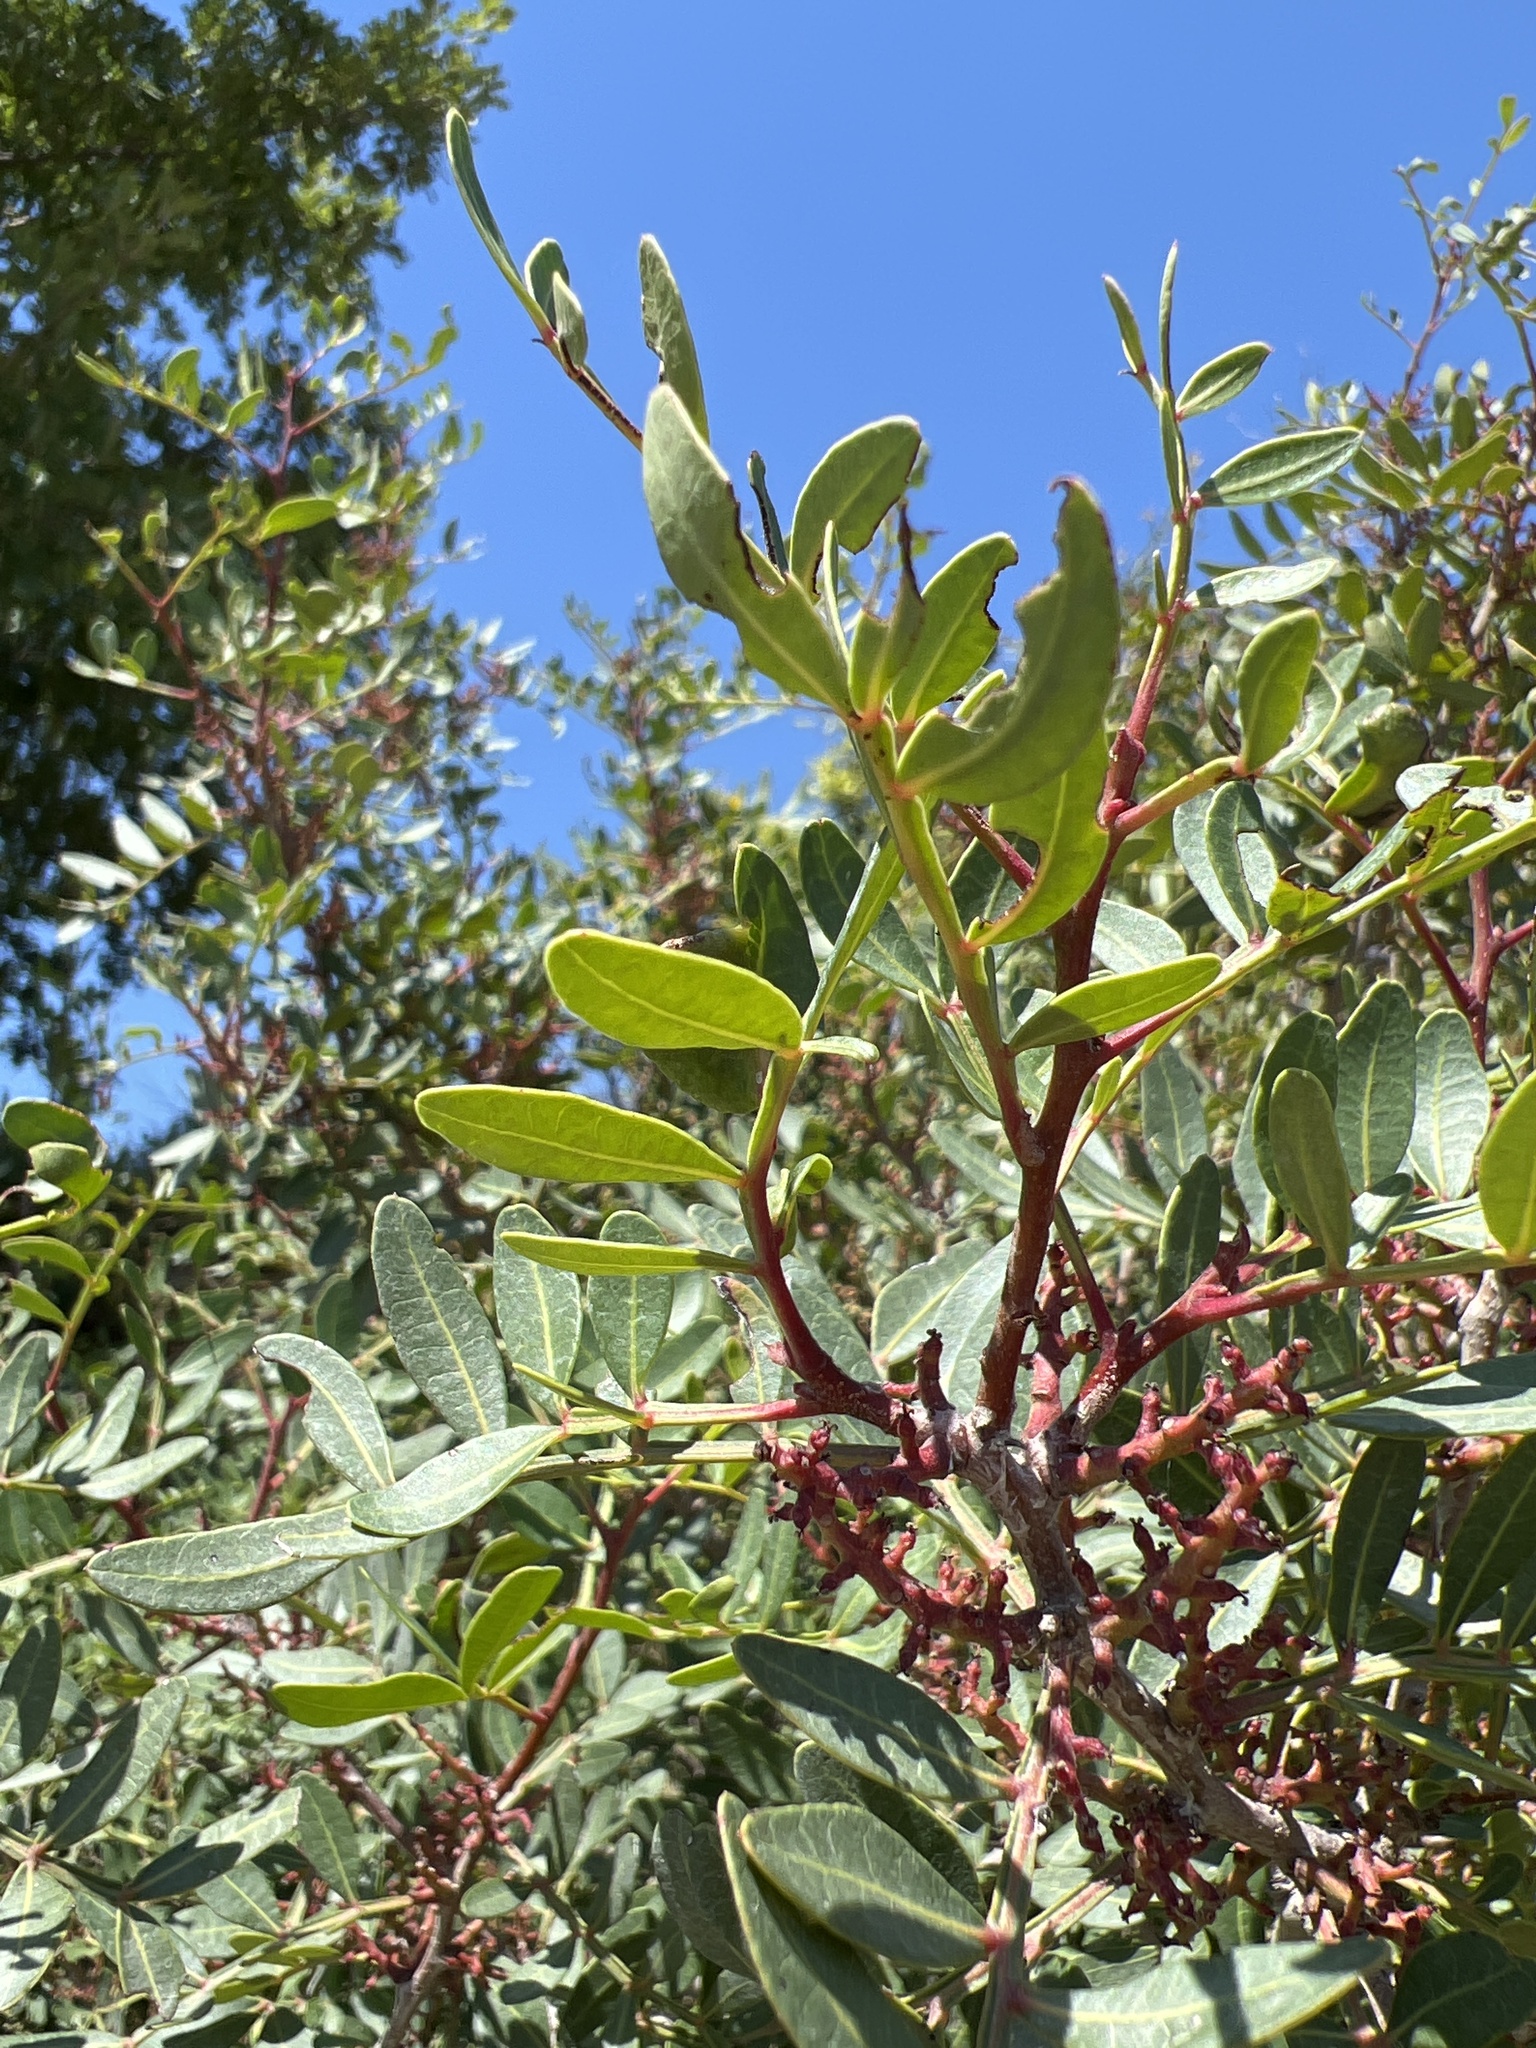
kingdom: Plantae
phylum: Tracheophyta
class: Magnoliopsida
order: Sapindales
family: Anacardiaceae
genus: Pistacia
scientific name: Pistacia lentiscus
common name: Lentisk
